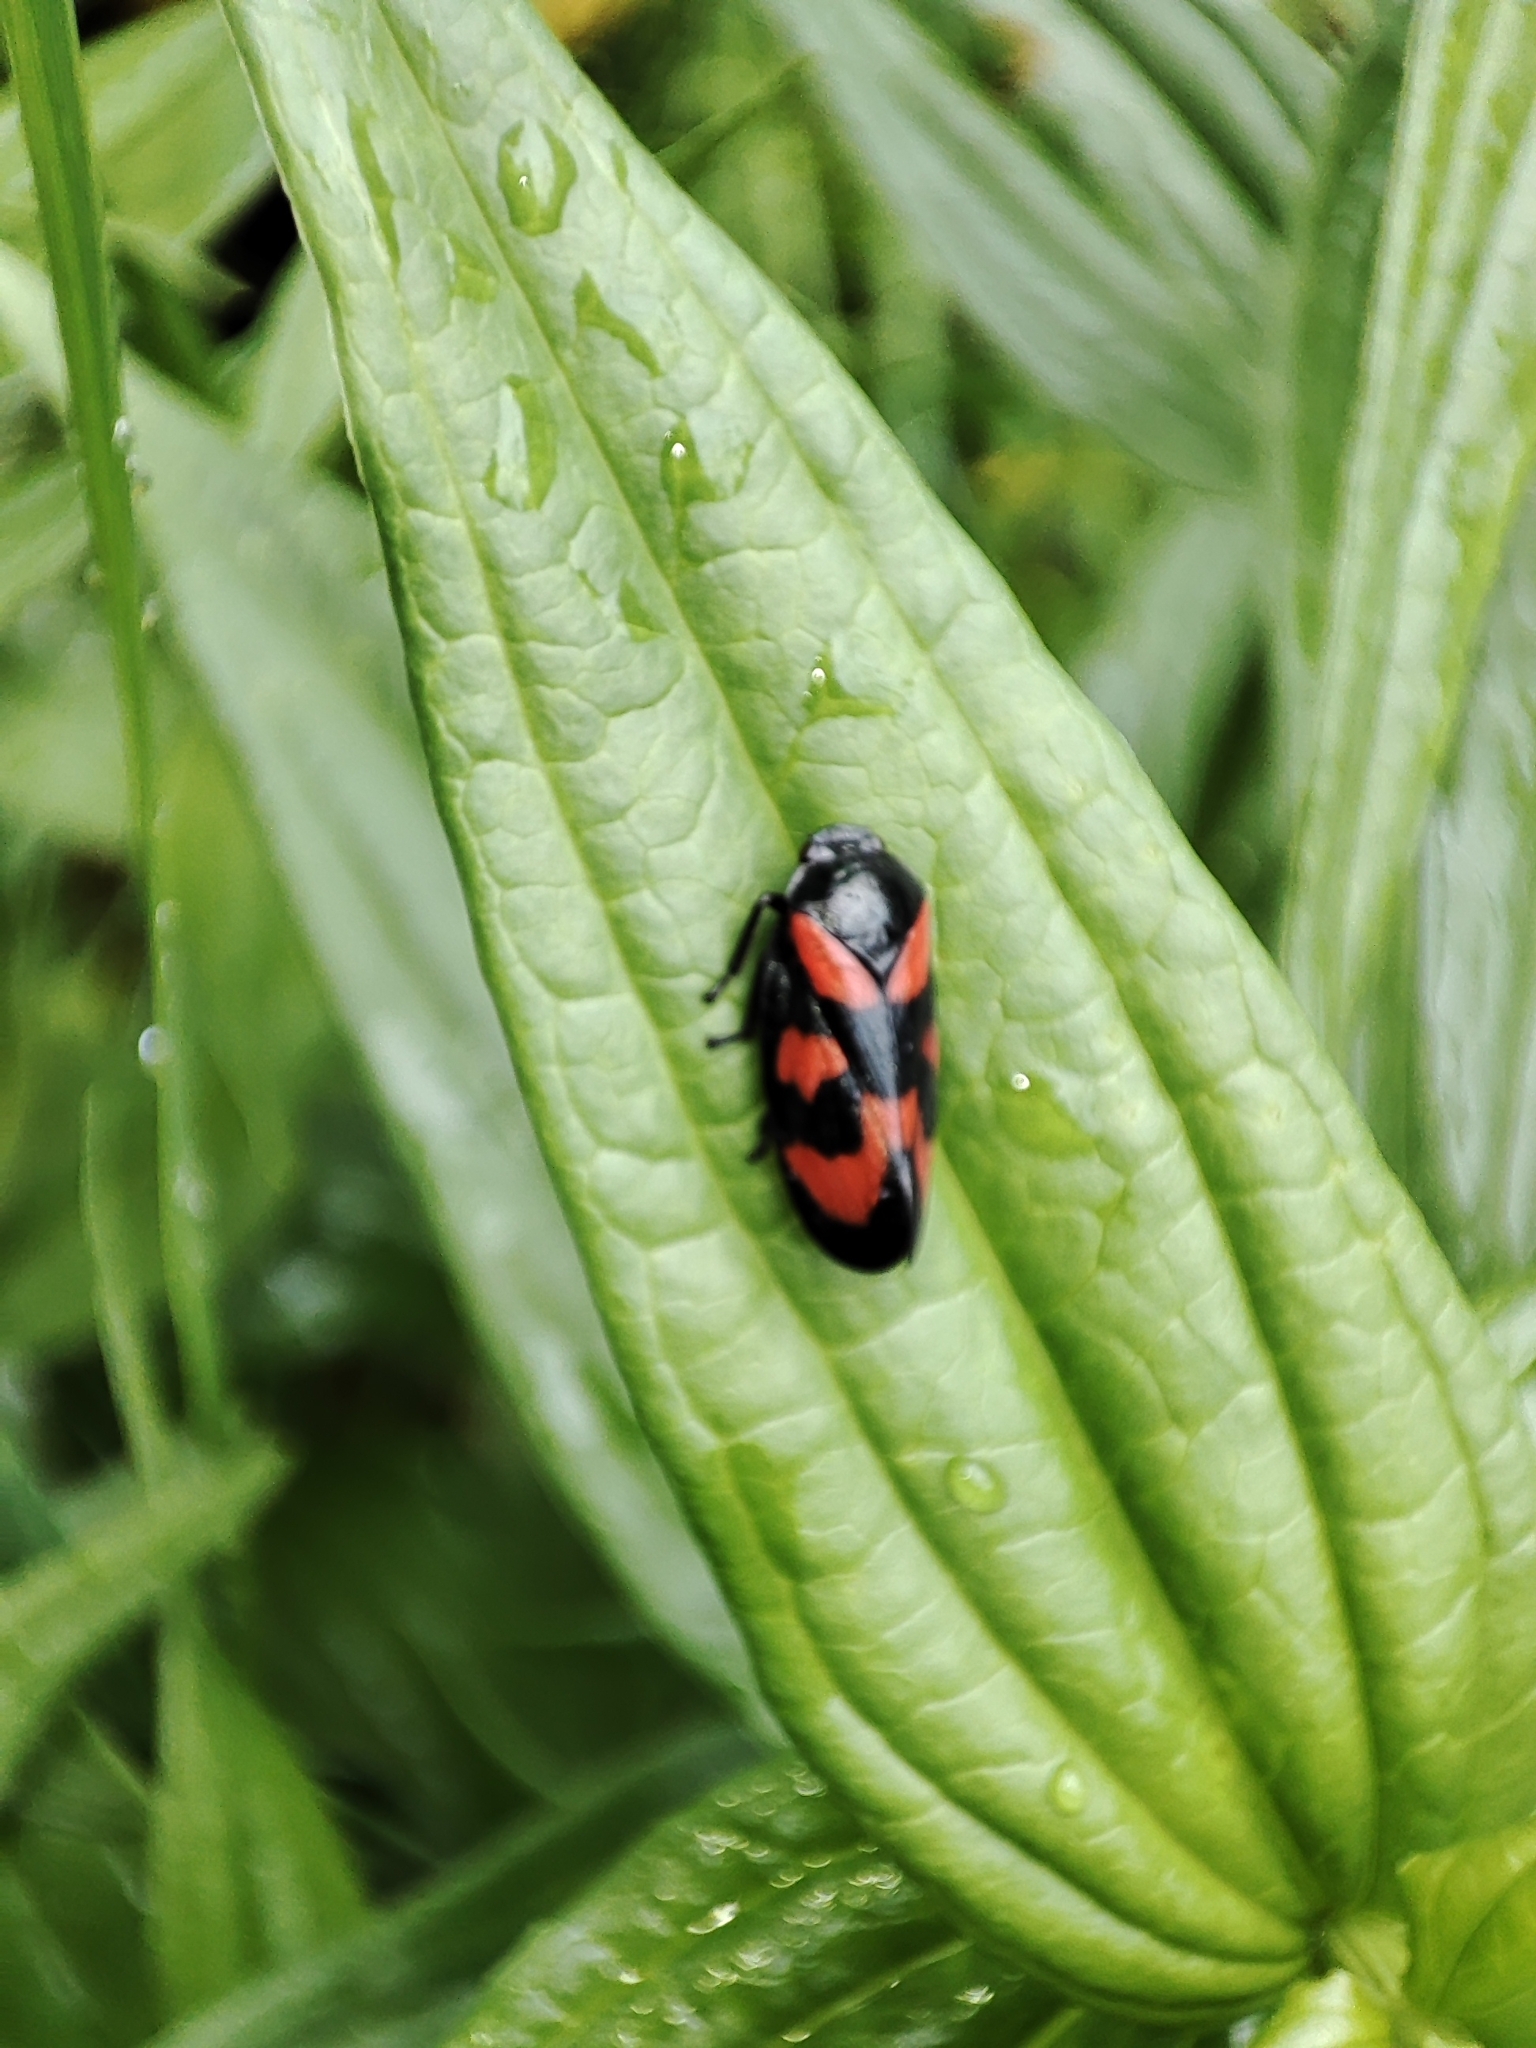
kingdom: Animalia
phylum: Arthropoda
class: Insecta
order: Hemiptera
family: Cercopidae
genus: Cercopis
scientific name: Cercopis vulnerata
